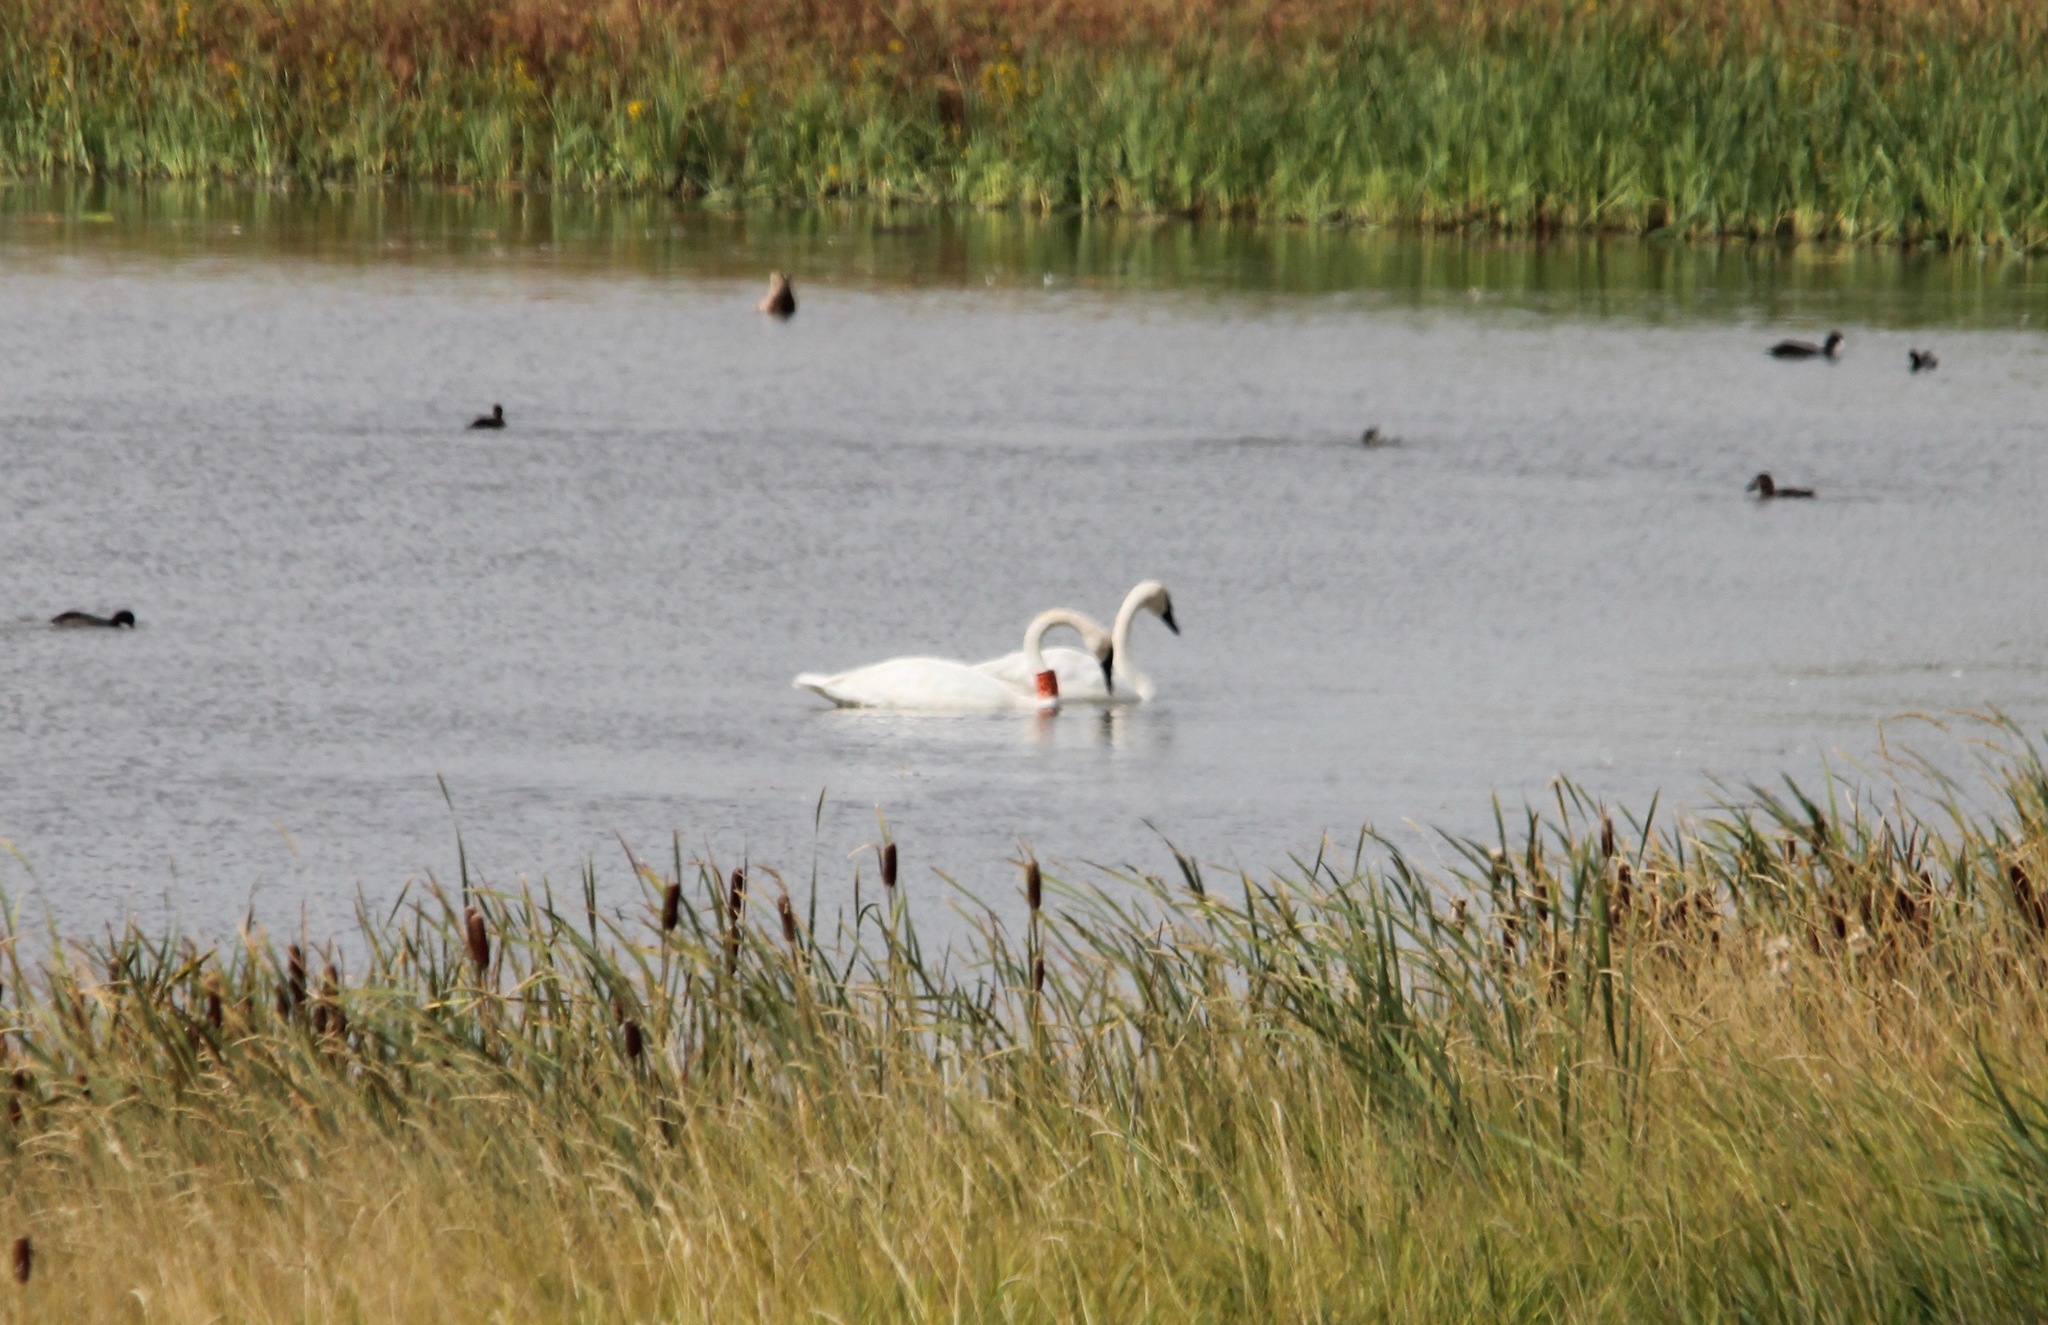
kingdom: Animalia
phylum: Chordata
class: Aves
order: Anseriformes
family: Anatidae
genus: Cygnus
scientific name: Cygnus buccinator
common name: Trumpeter swan
